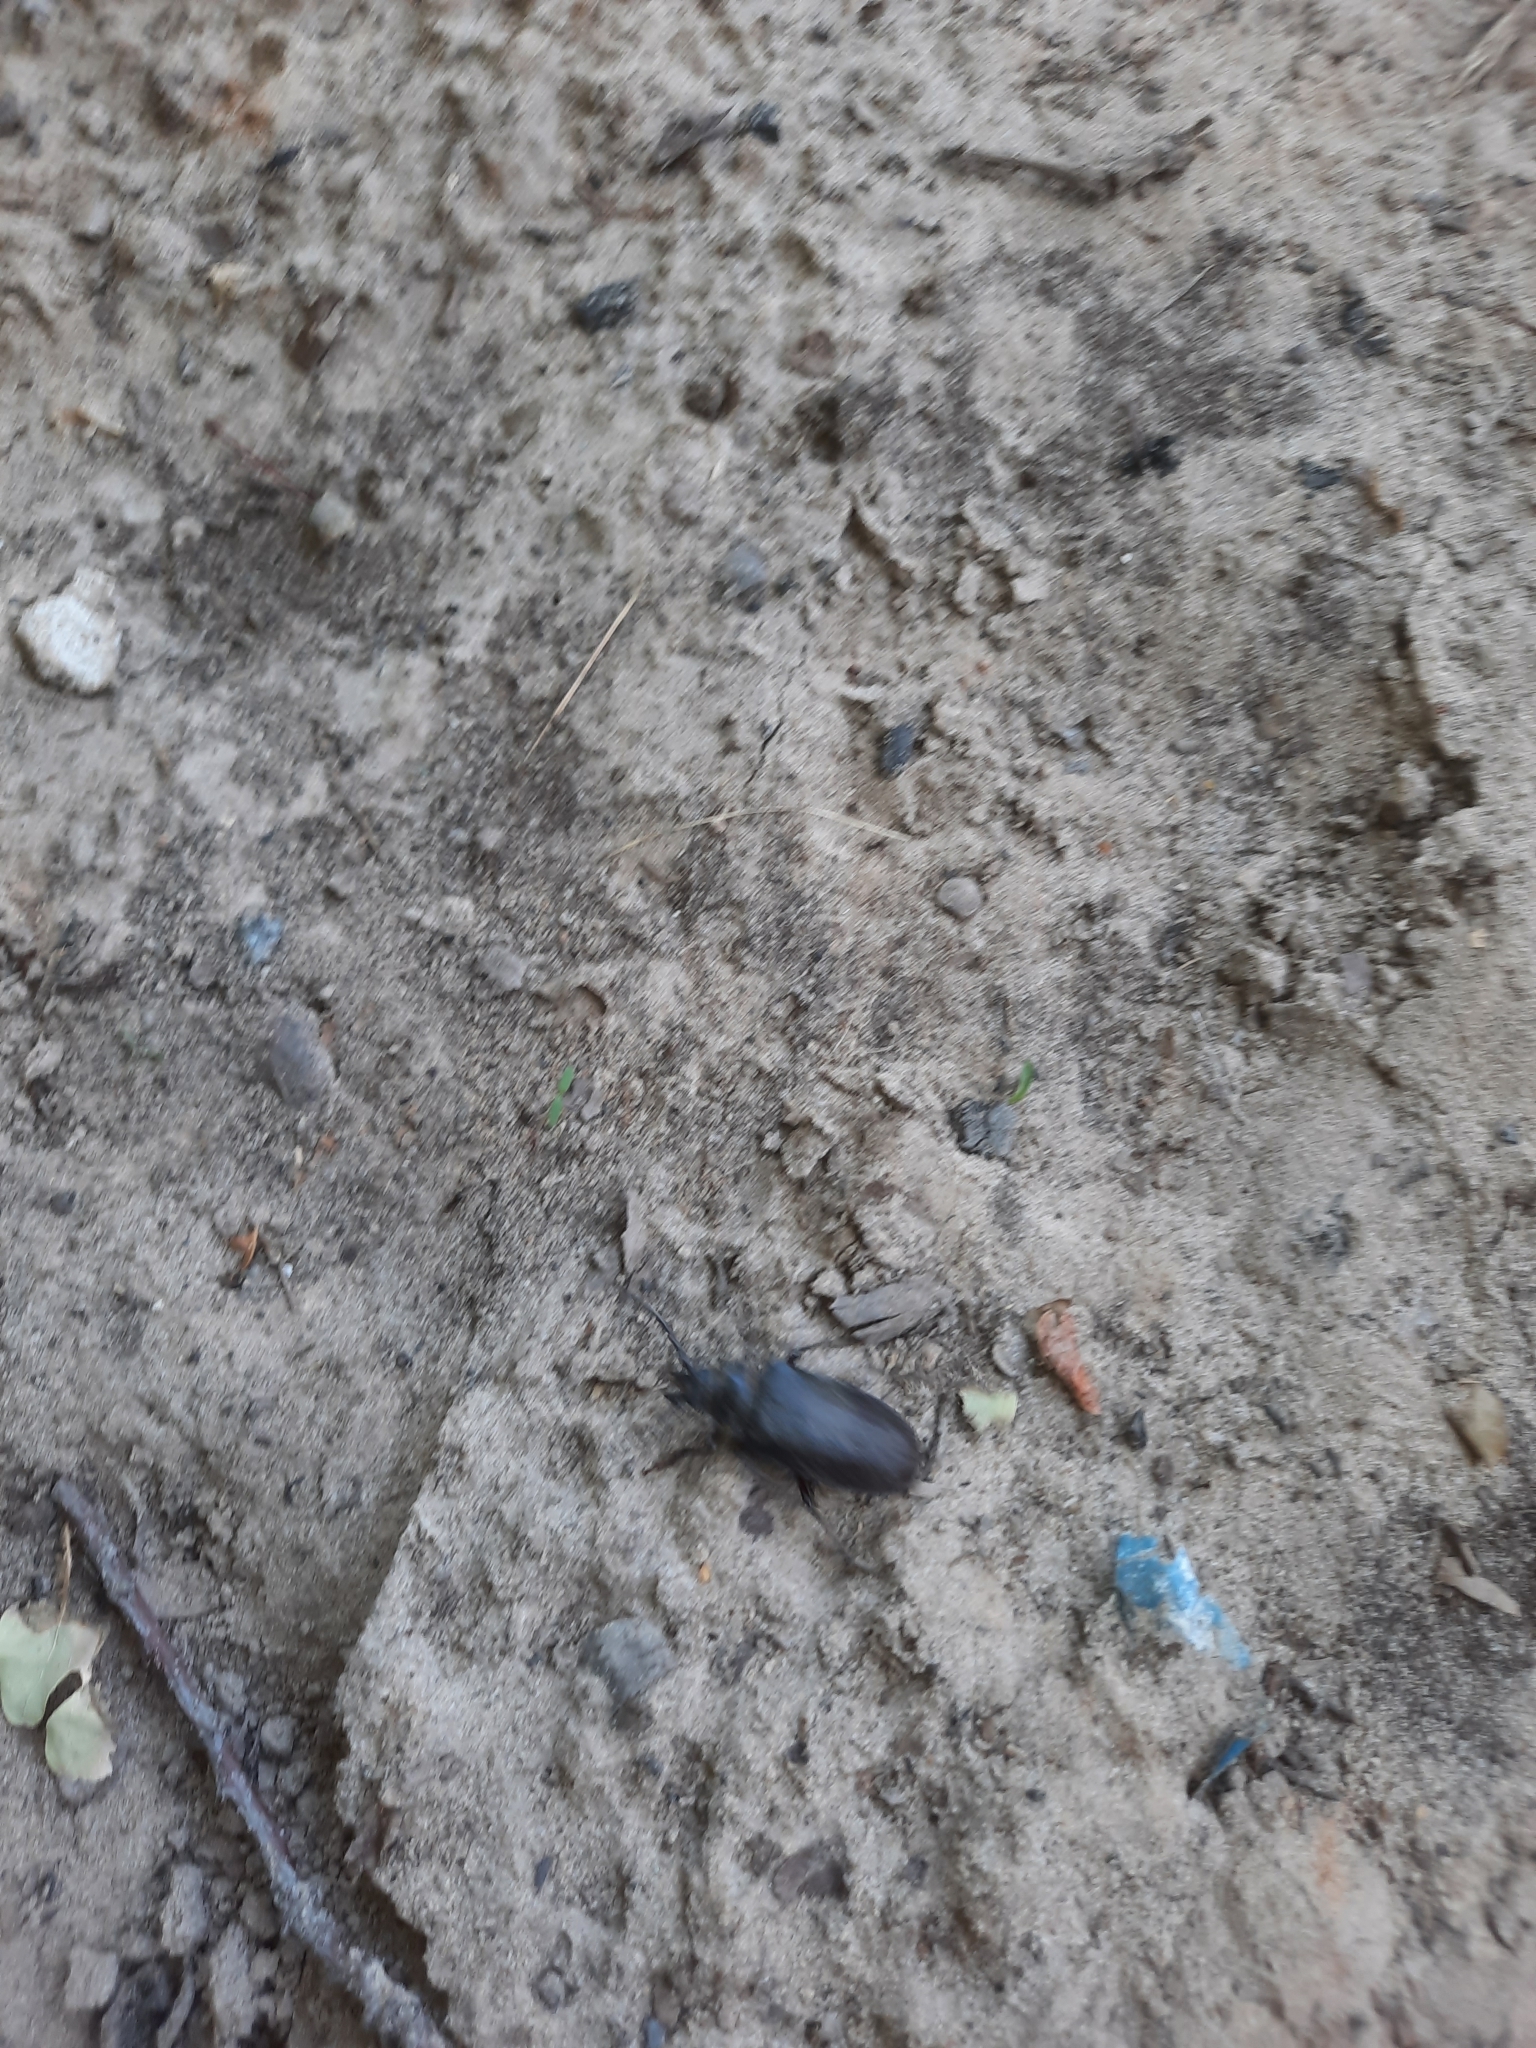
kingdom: Animalia
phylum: Arthropoda
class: Insecta
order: Coleoptera
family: Cerambycidae
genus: Prionus
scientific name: Prionus coriarius
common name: Tanner beetle
